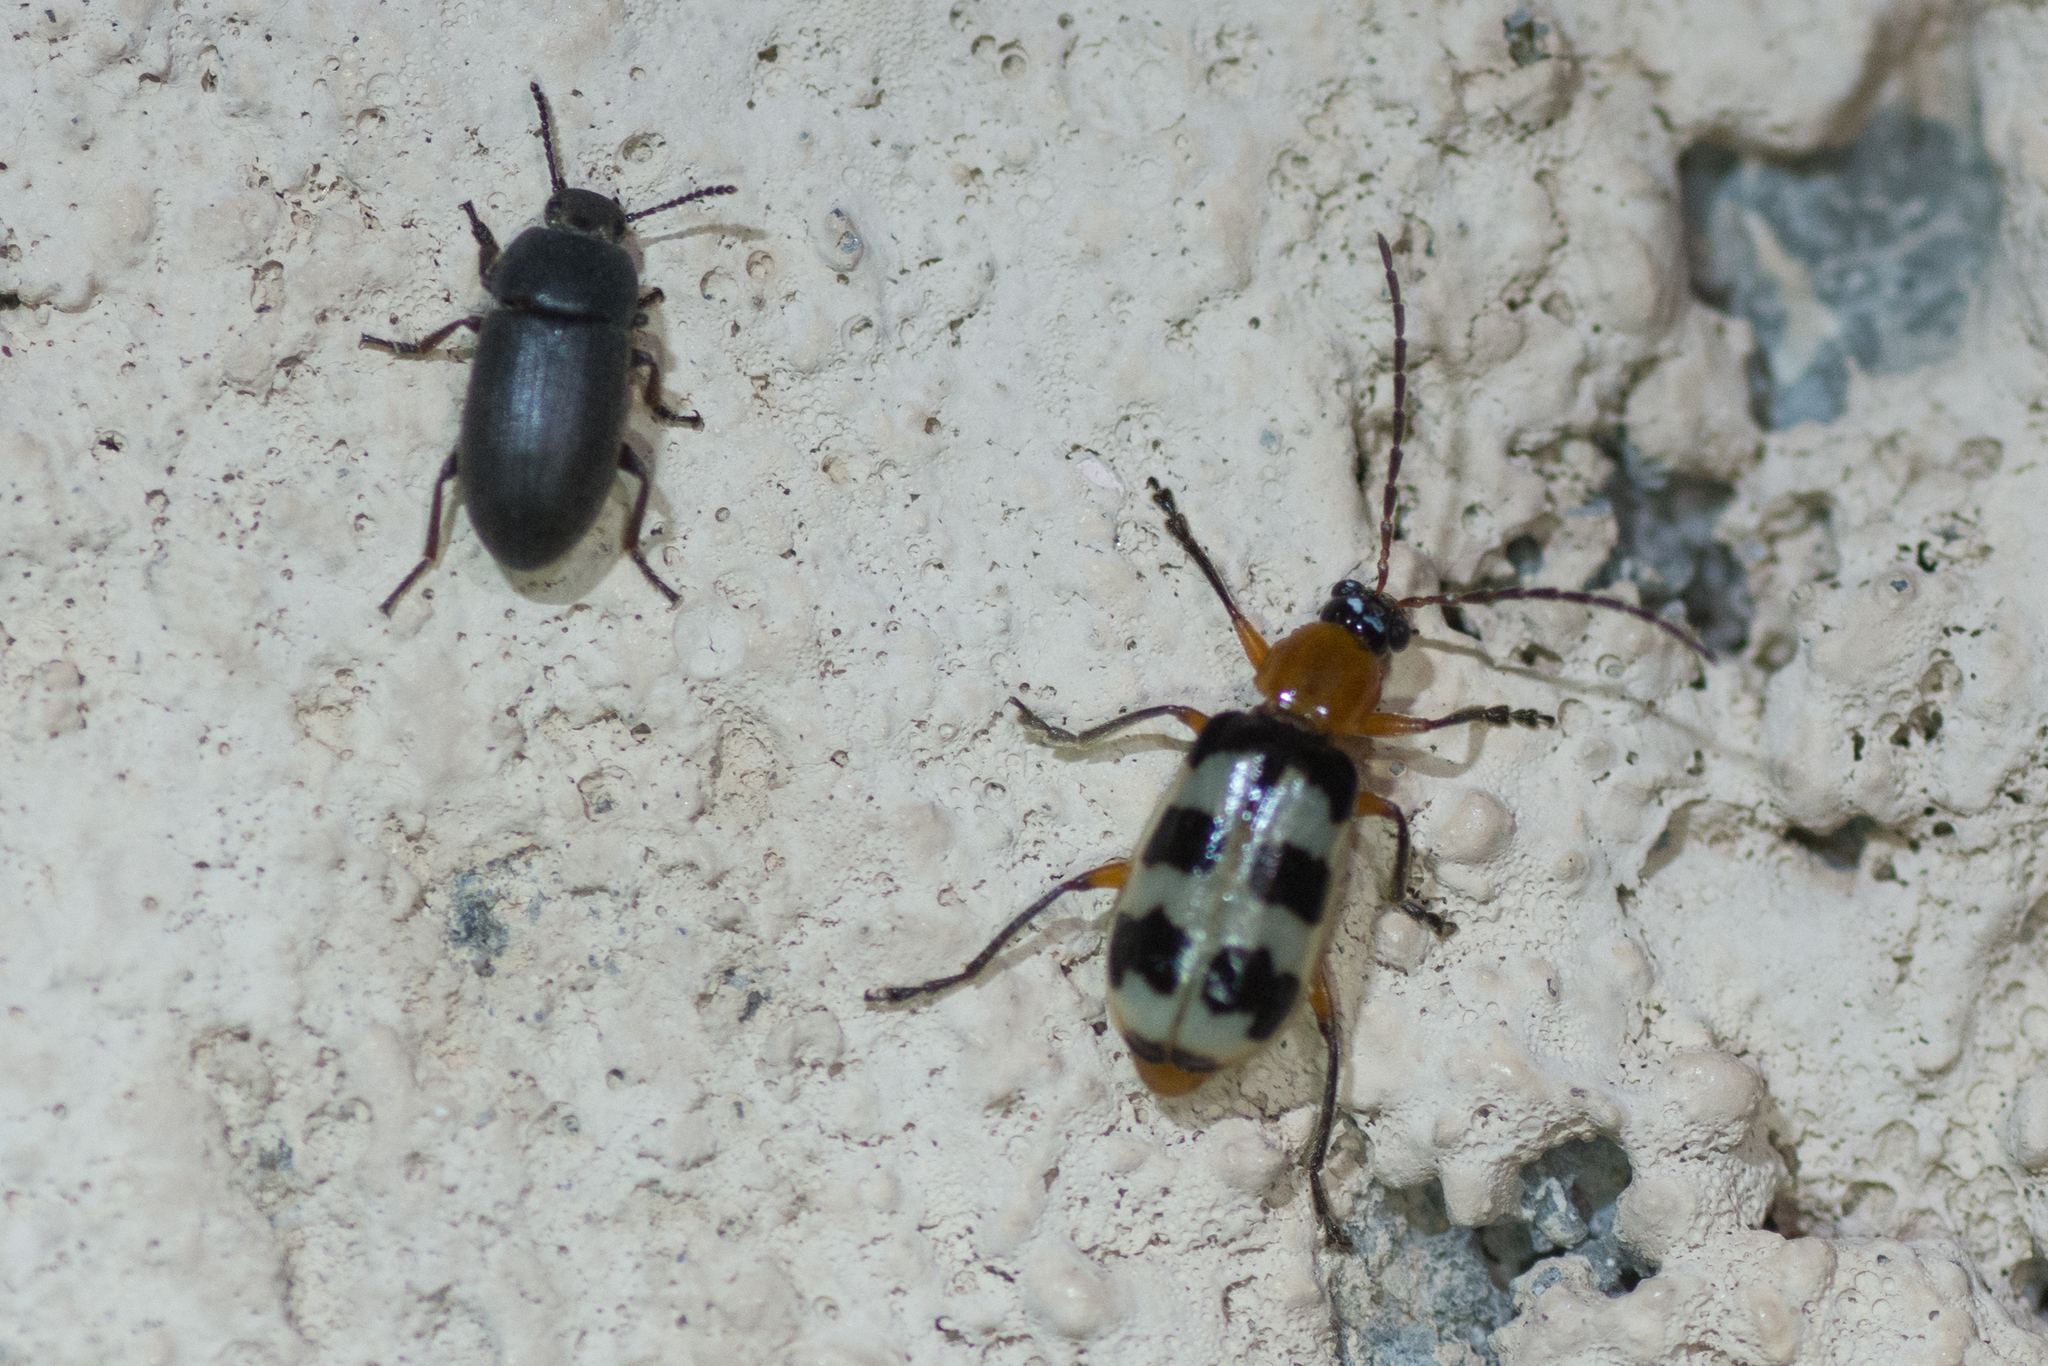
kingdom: Animalia
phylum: Arthropoda
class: Insecta
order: Coleoptera
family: Chrysomelidae
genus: Paranapiacaba
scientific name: Paranapiacaba tricincta
